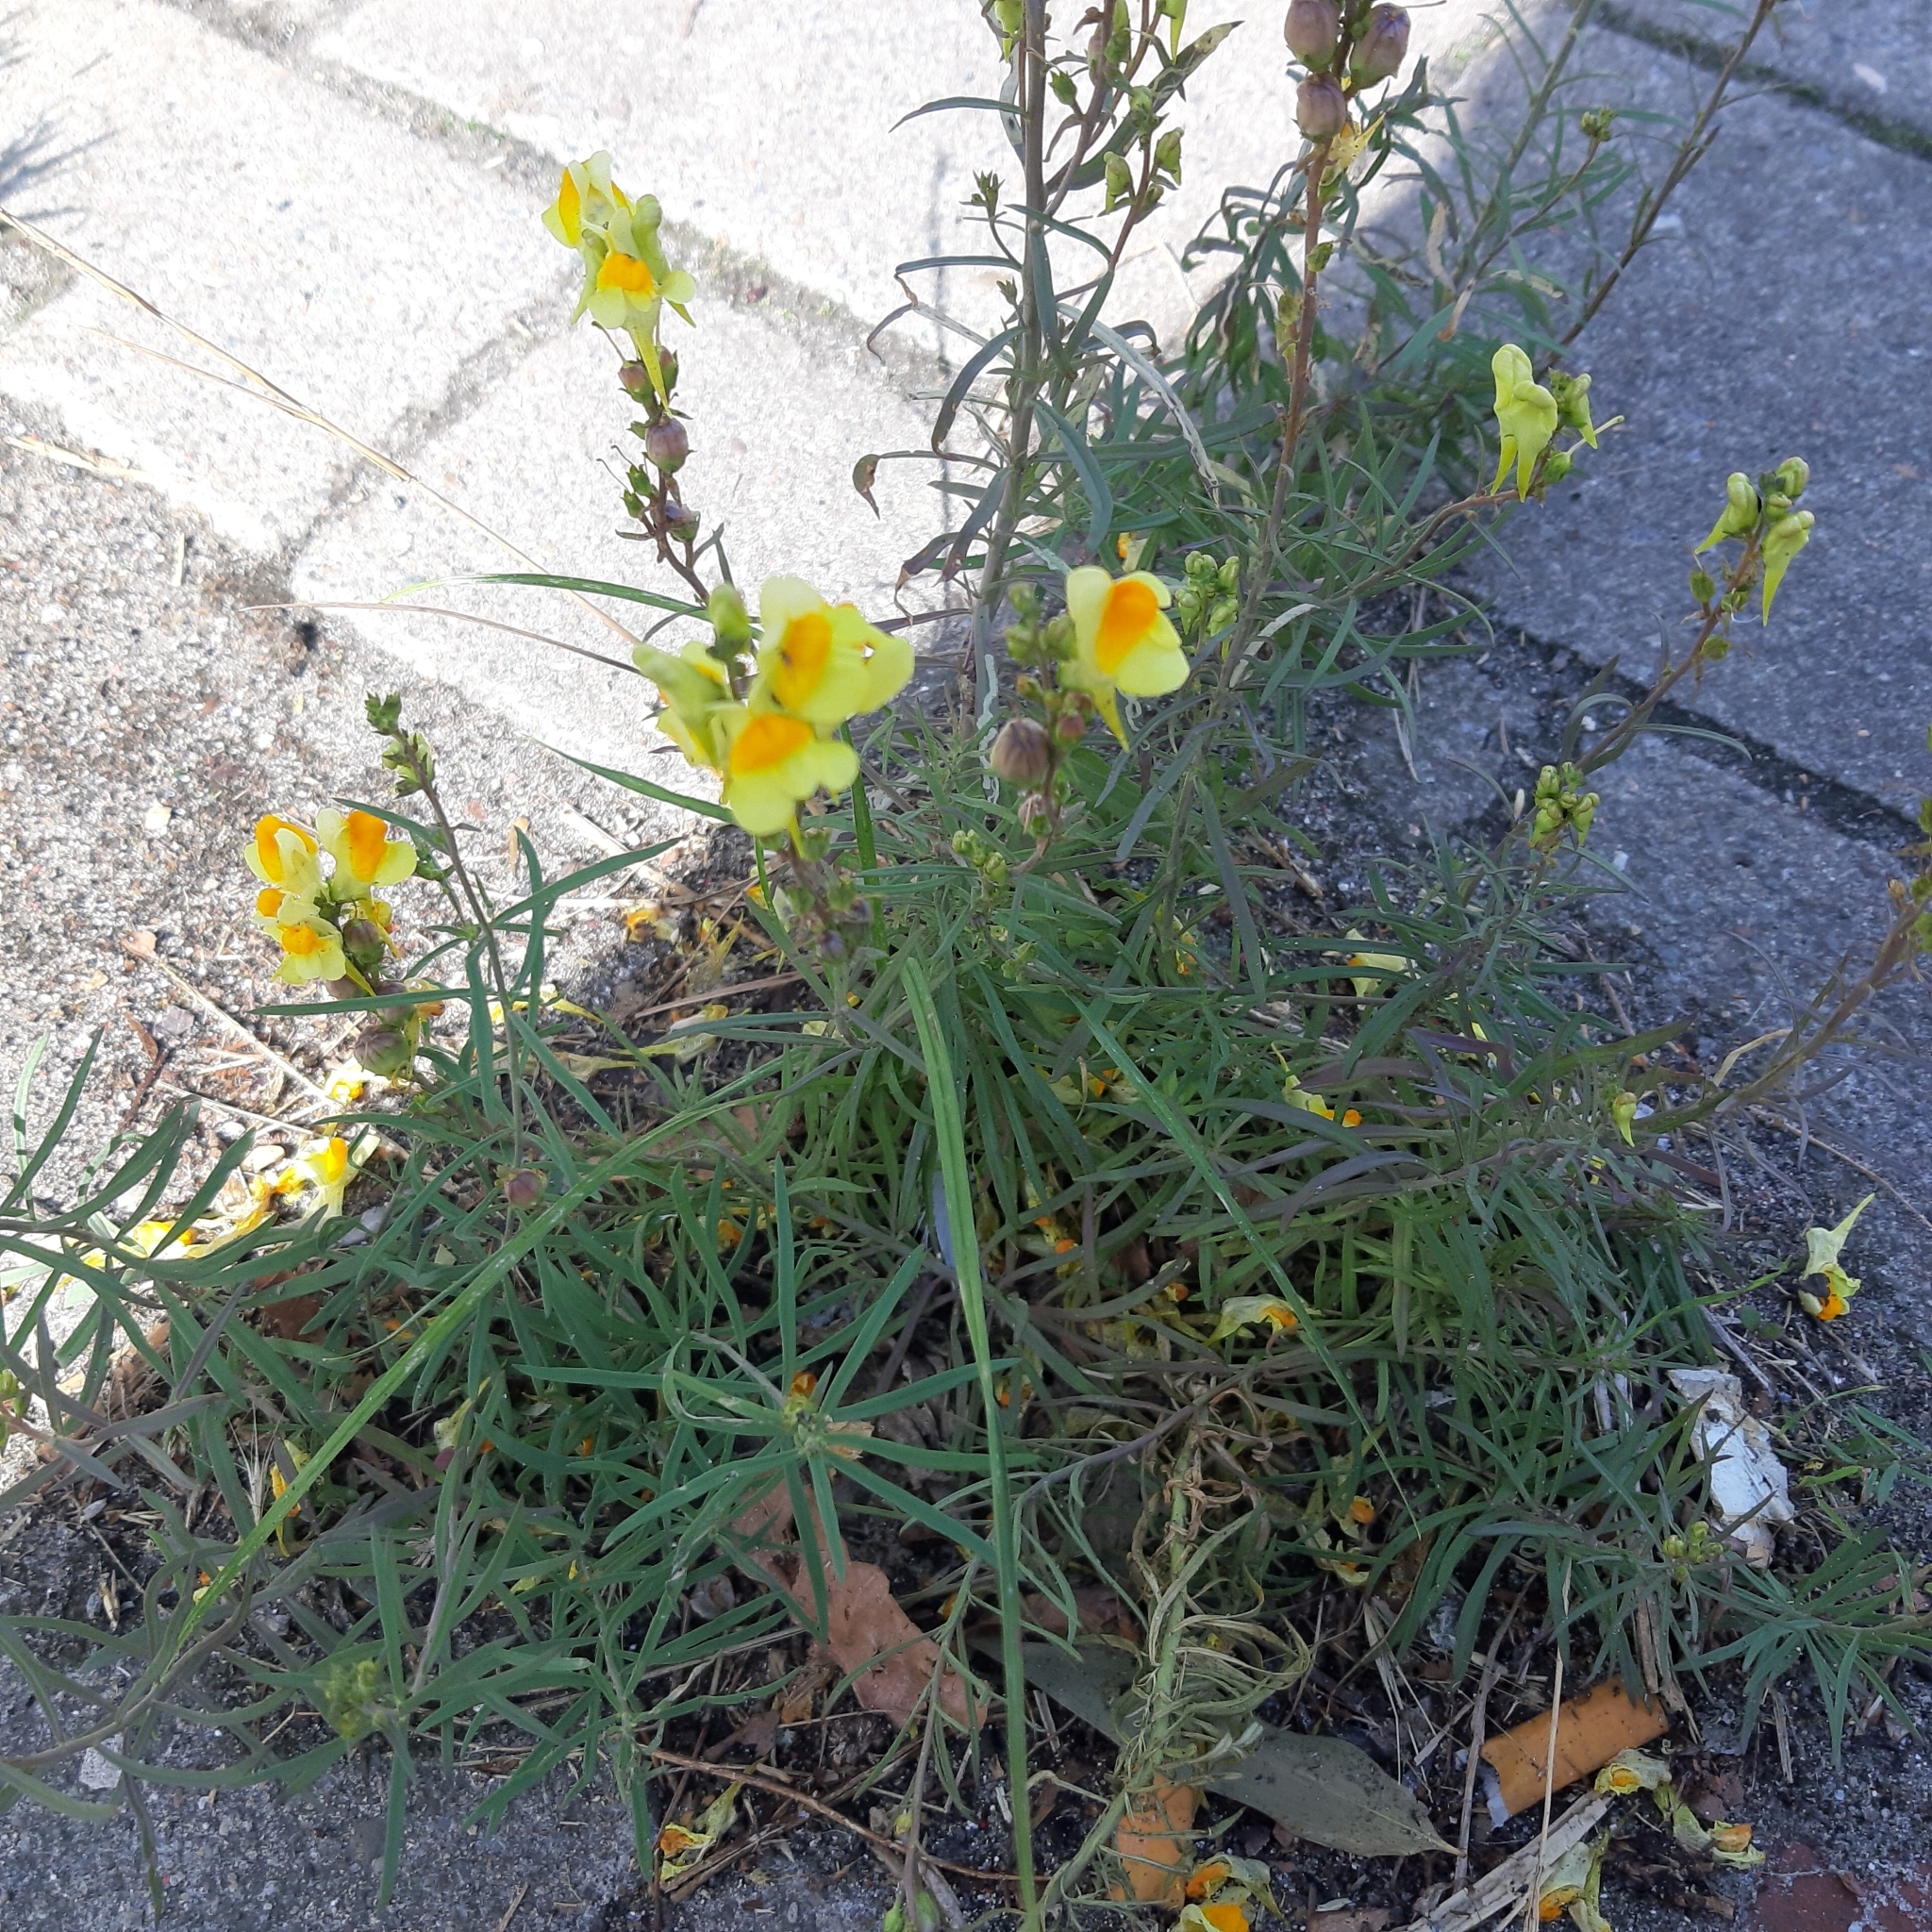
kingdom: Plantae
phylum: Tracheophyta
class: Magnoliopsida
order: Lamiales
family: Plantaginaceae
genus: Linaria
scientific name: Linaria vulgaris
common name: Butter and eggs
